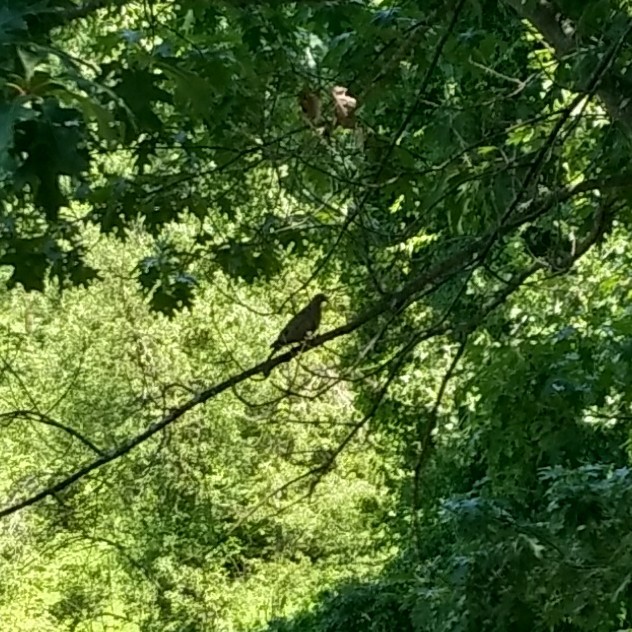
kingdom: Animalia
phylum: Chordata
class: Aves
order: Columbiformes
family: Columbidae
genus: Zenaida
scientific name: Zenaida macroura
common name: Mourning dove
